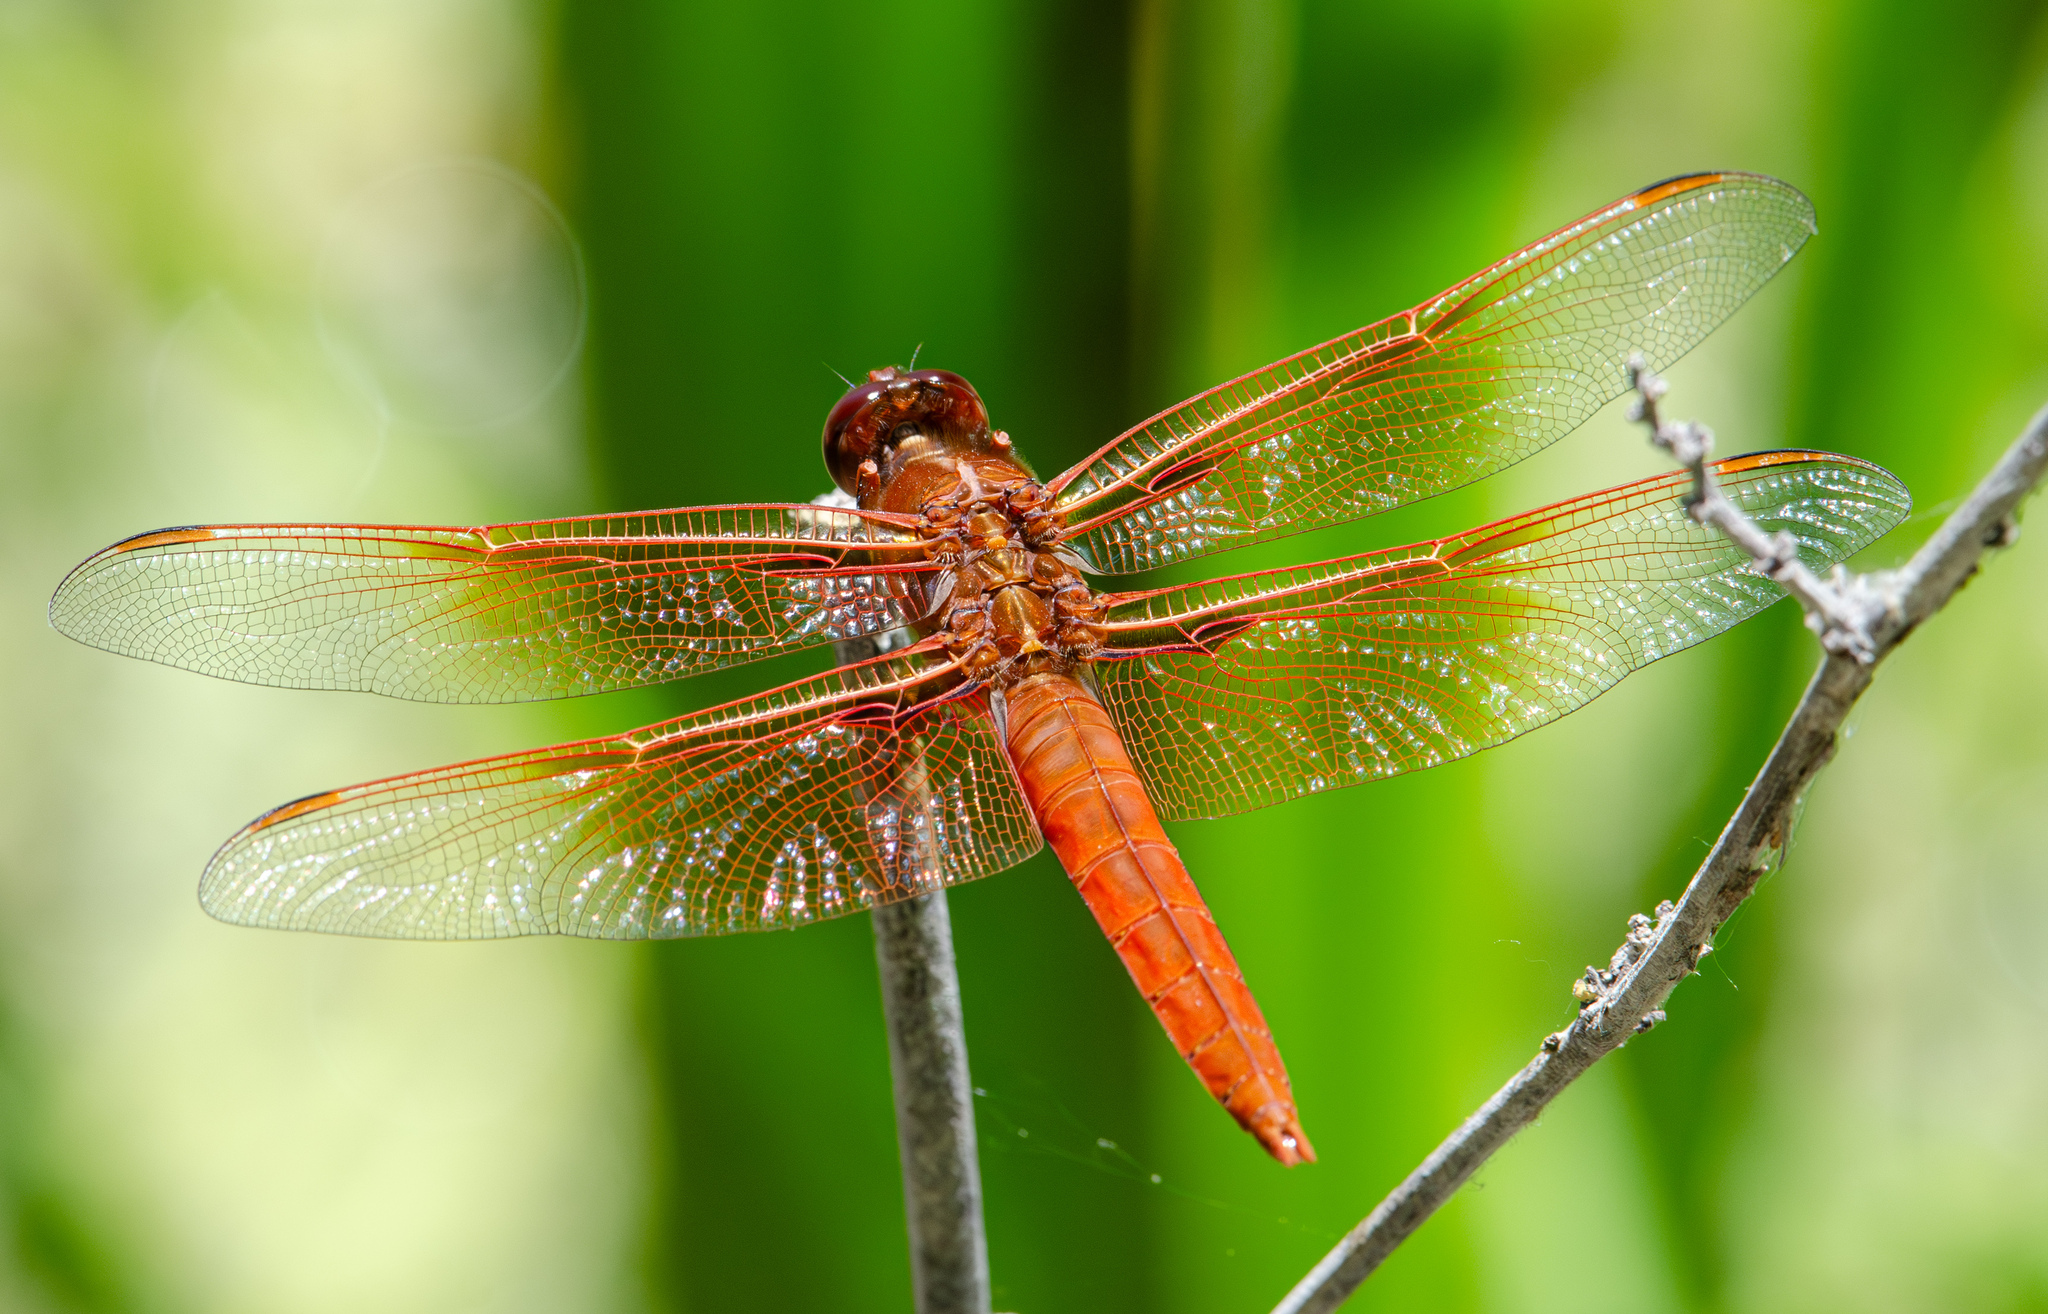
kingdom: Animalia
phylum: Arthropoda
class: Insecta
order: Odonata
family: Libellulidae
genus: Libellula
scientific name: Libellula saturata
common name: Flame skimmer
